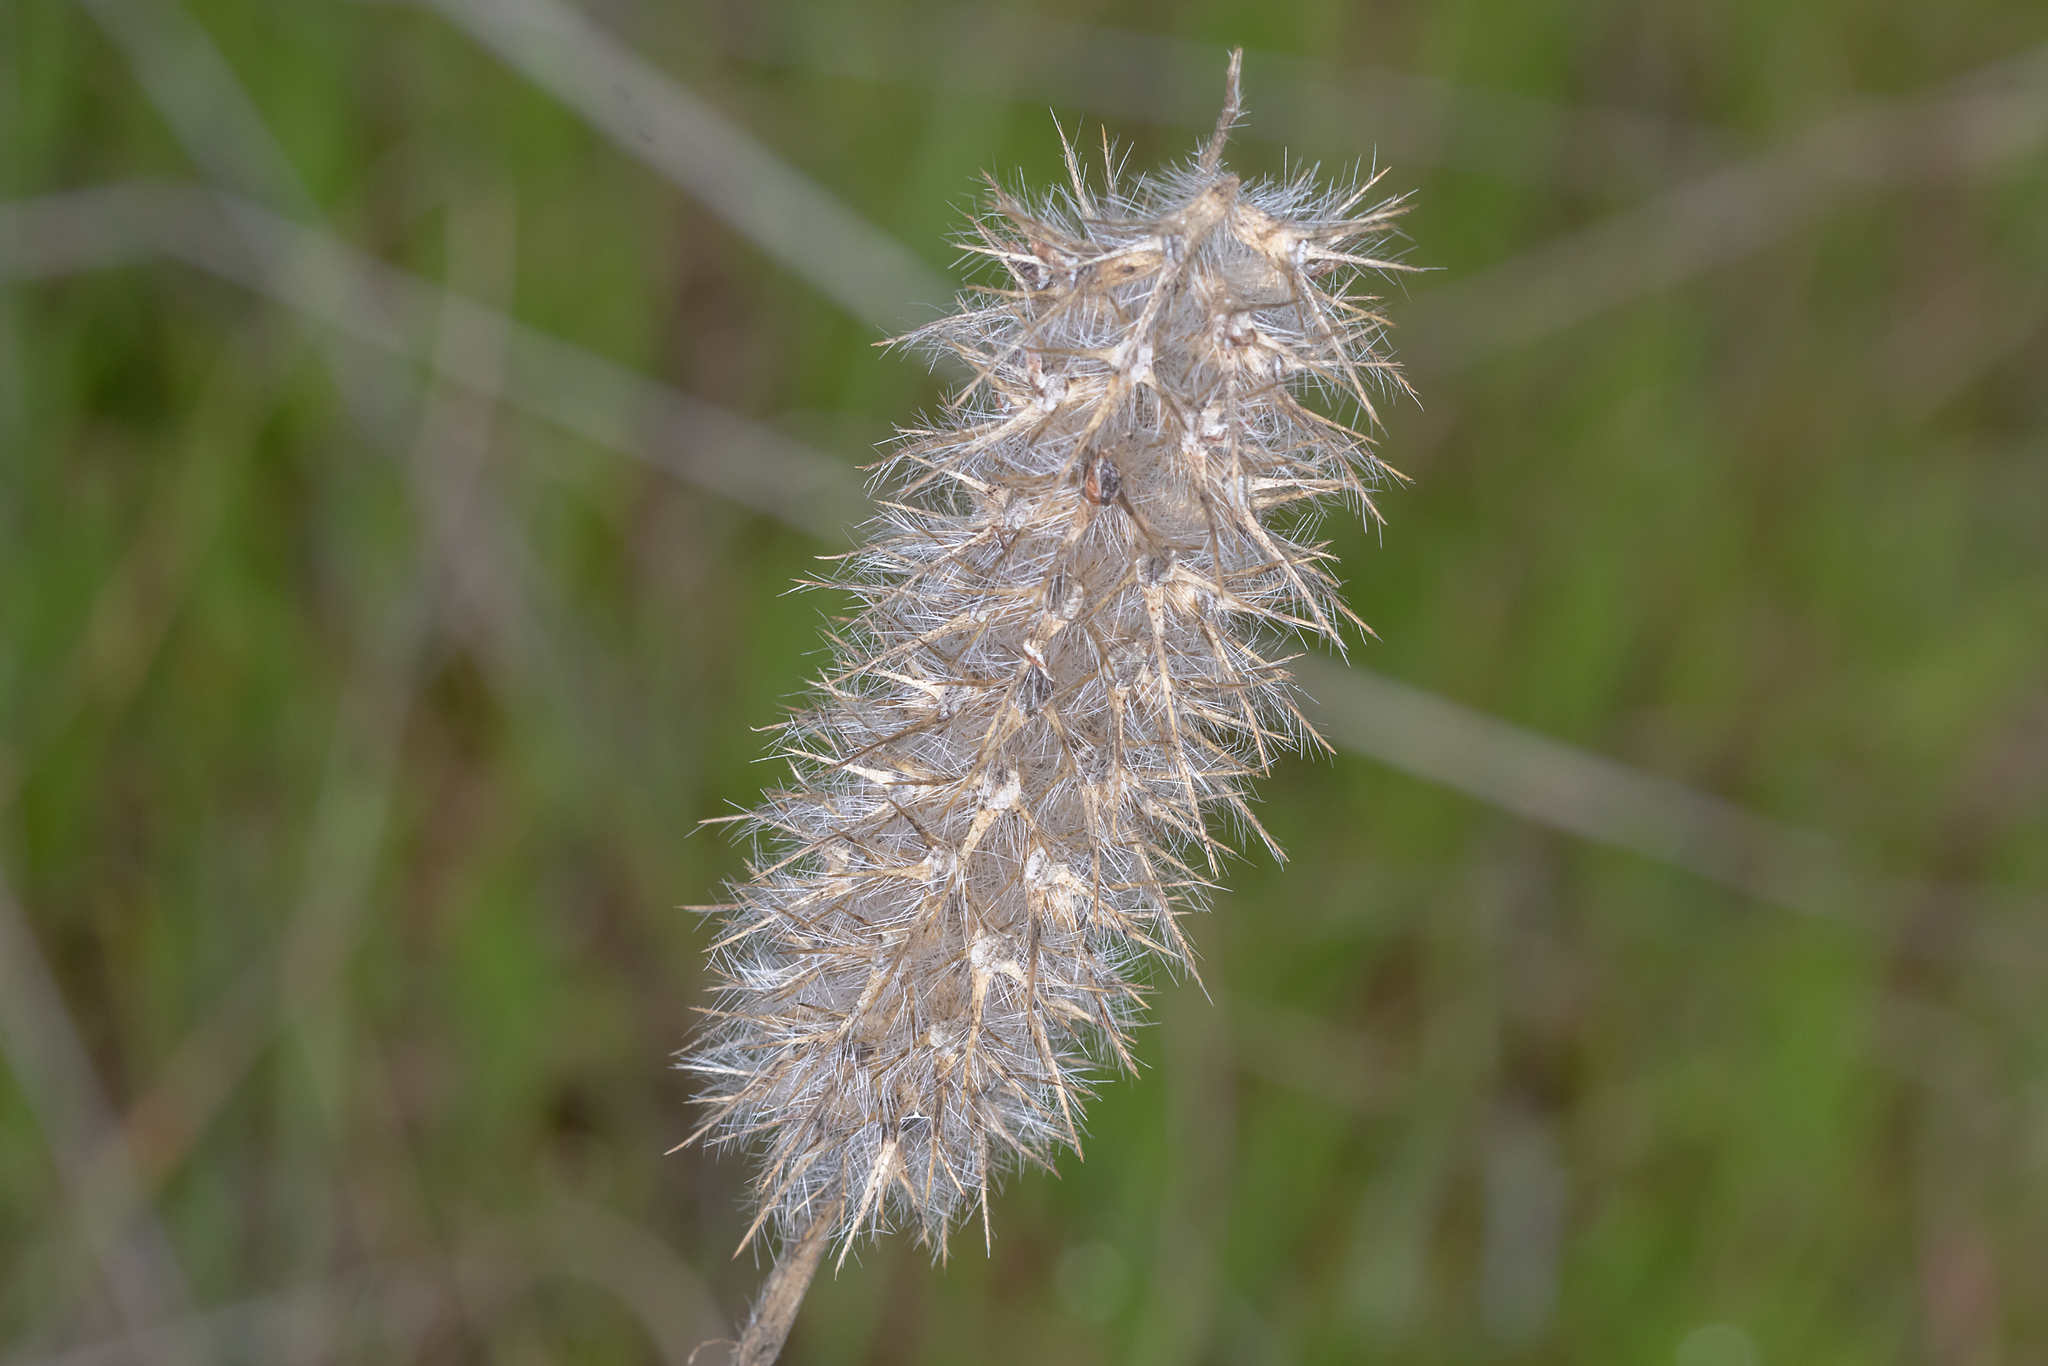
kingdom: Plantae
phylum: Tracheophyta
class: Magnoliopsida
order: Fabales
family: Fabaceae
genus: Trifolium
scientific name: Trifolium angustifolium
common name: Narrow clover
